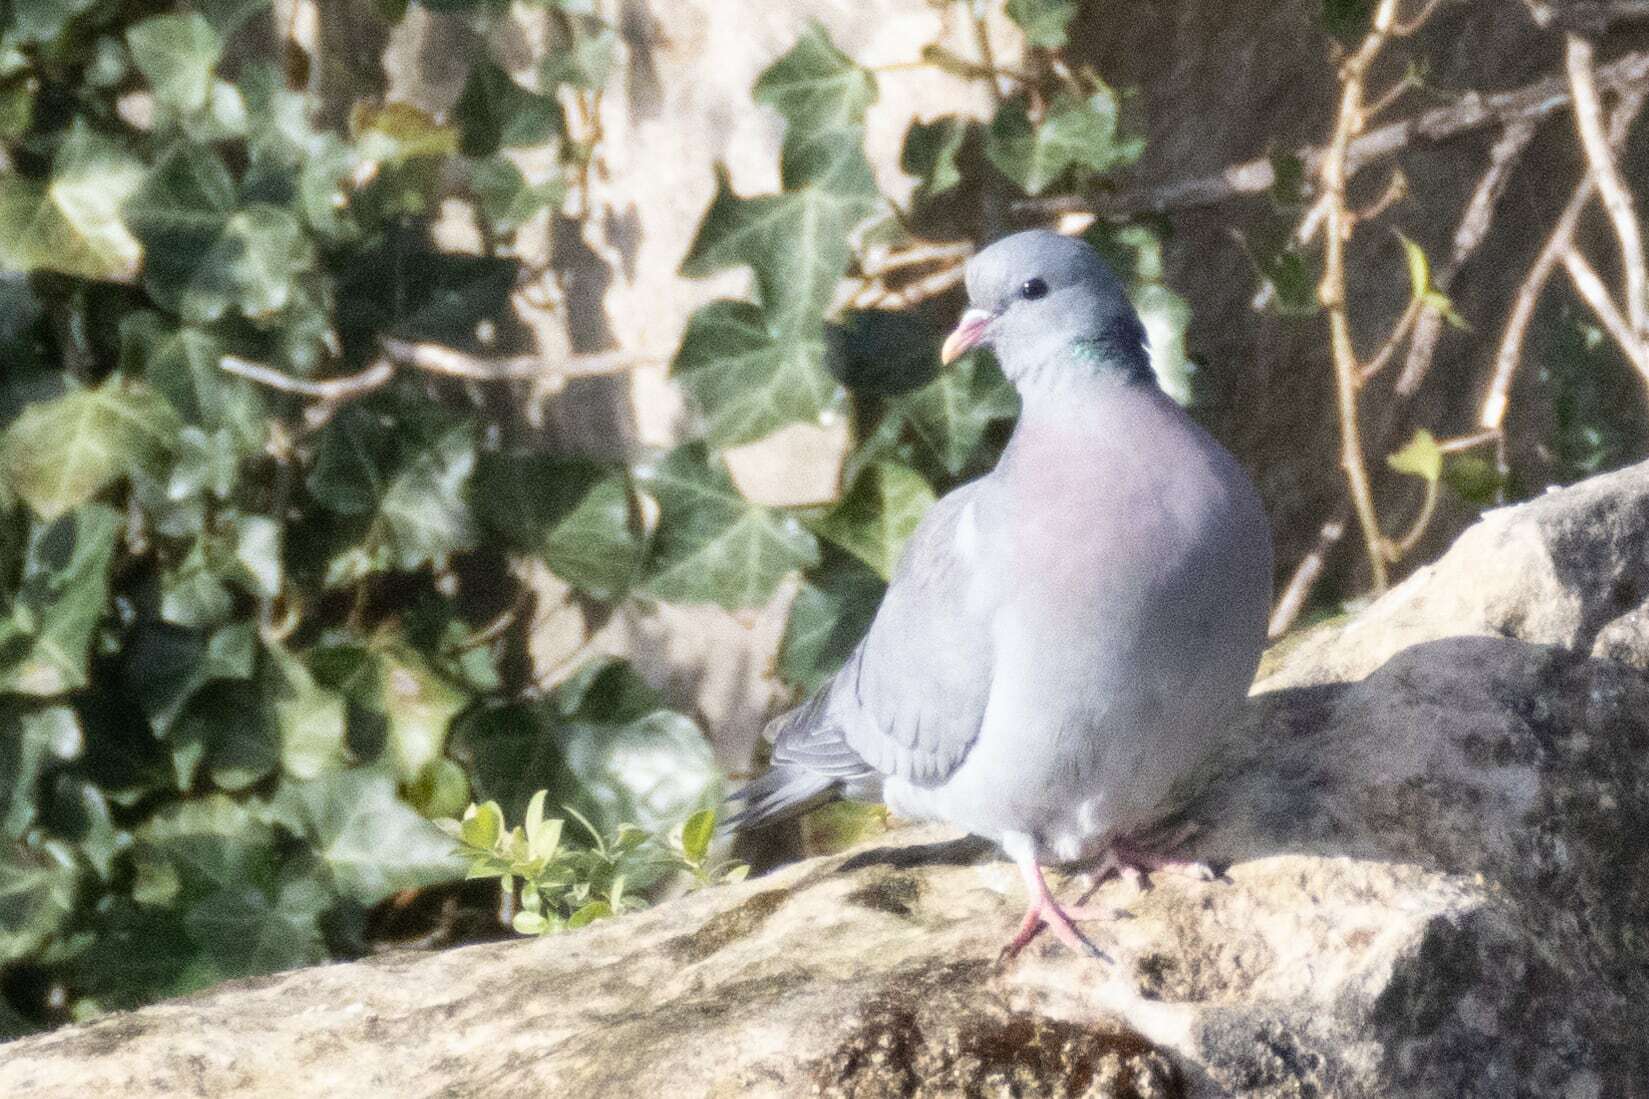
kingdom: Animalia
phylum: Chordata
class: Aves
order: Columbiformes
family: Columbidae
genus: Columba
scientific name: Columba oenas
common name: Stock dove
